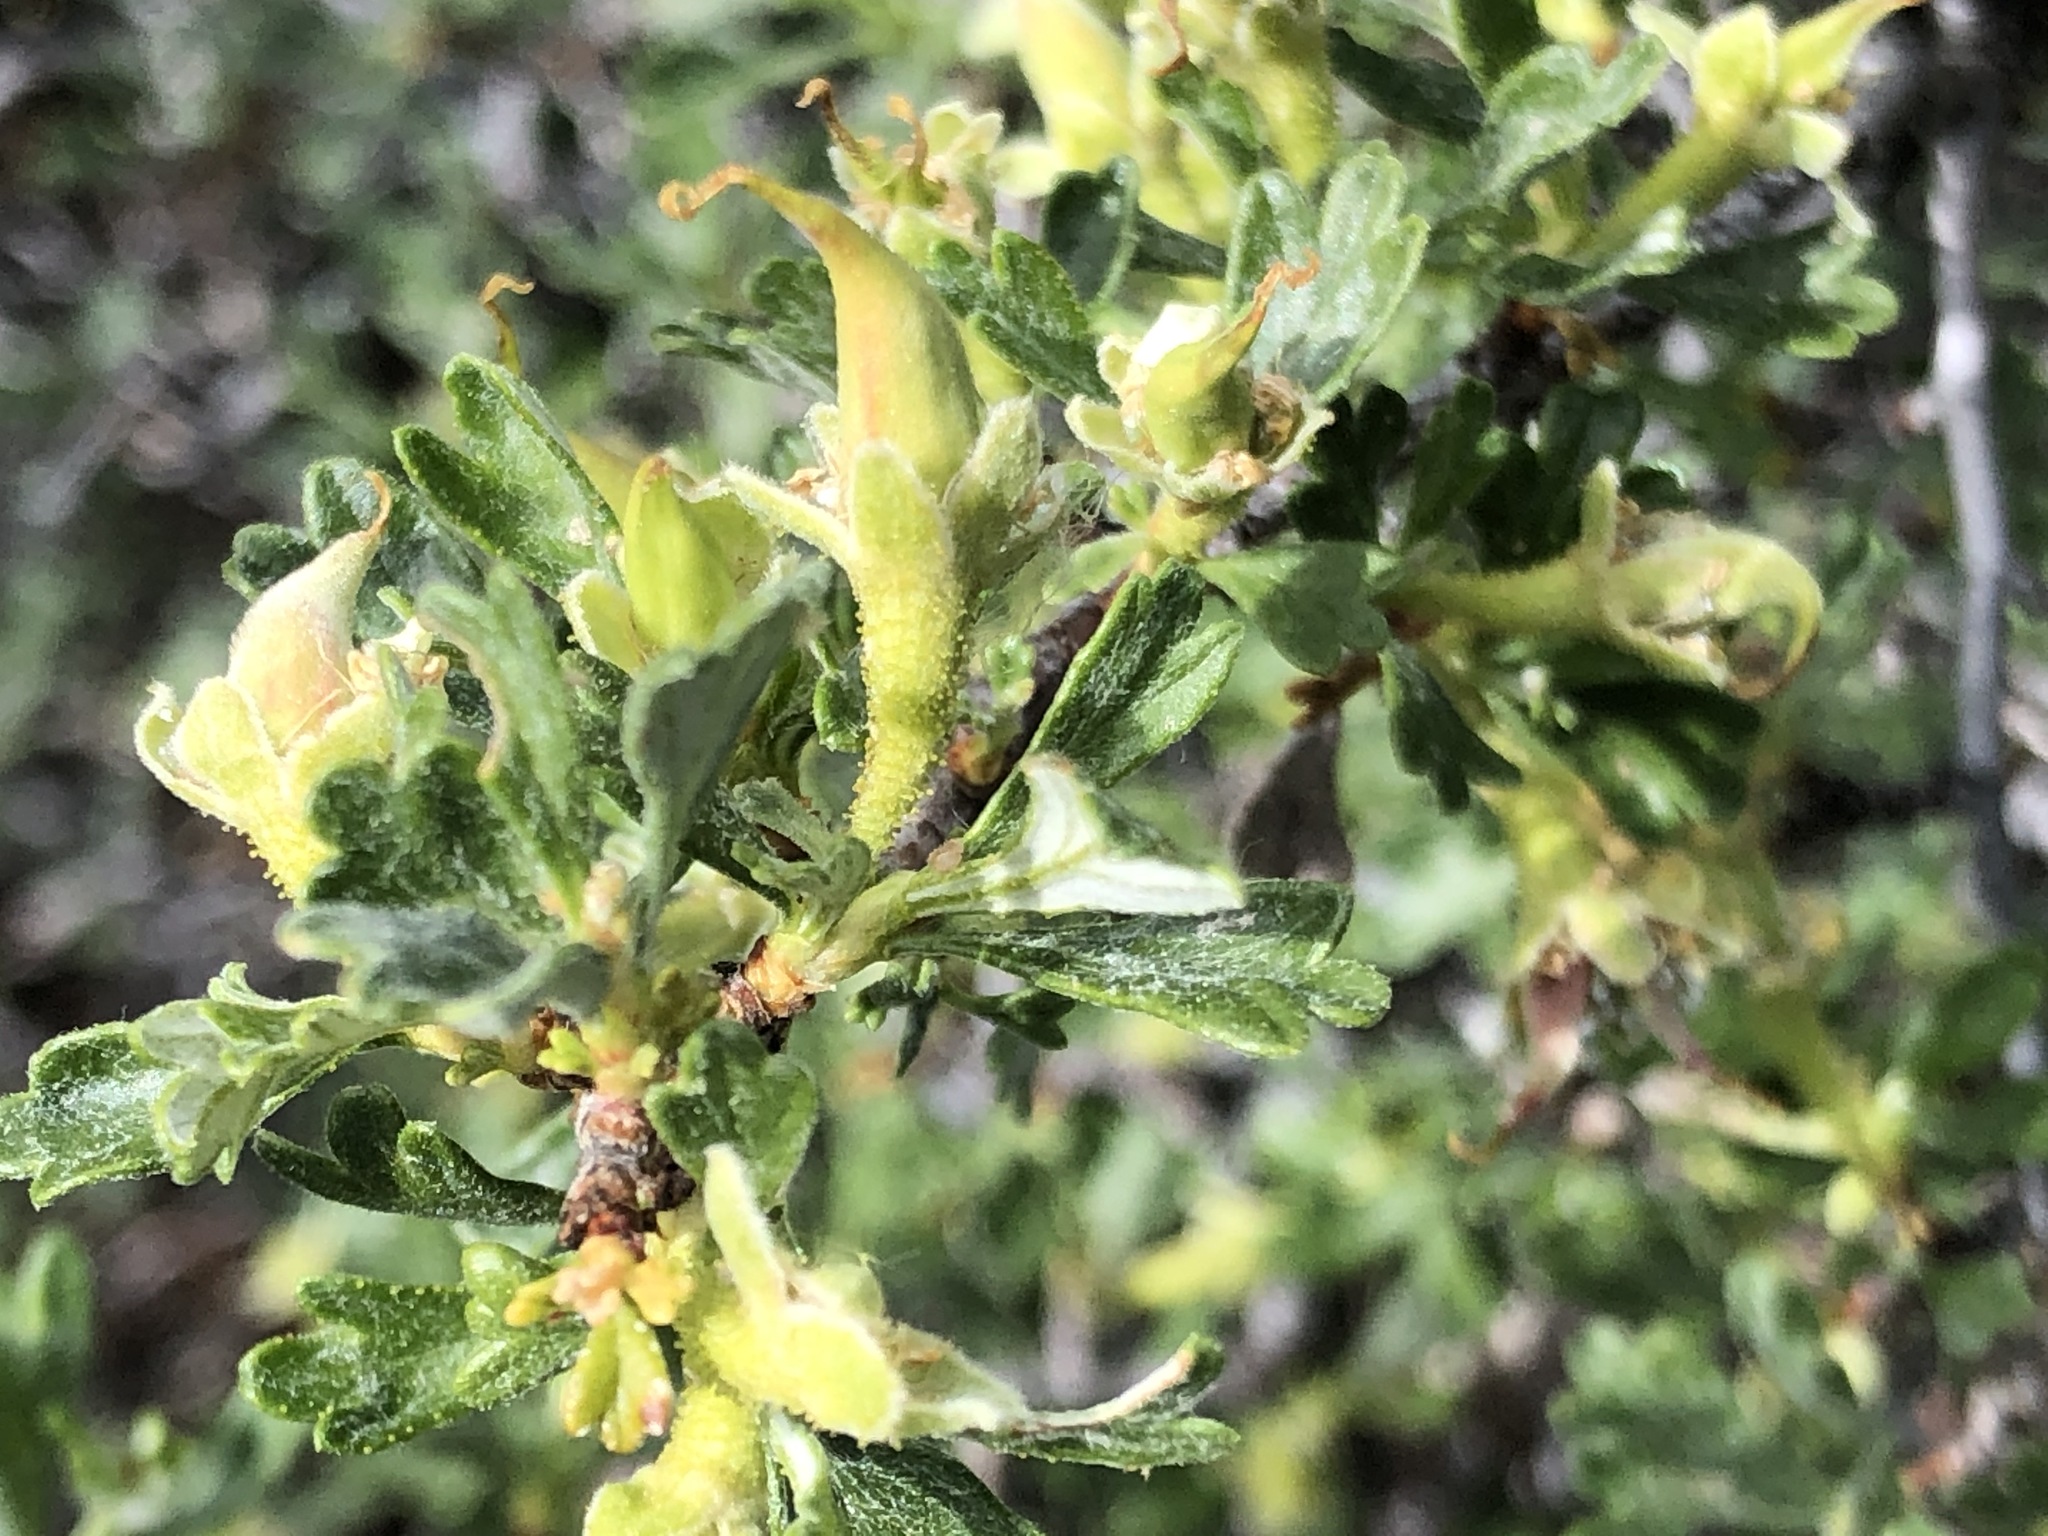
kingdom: Plantae
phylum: Tracheophyta
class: Magnoliopsida
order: Rosales
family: Rosaceae
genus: Purshia
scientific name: Purshia tridentata
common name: Antelope bitterbrush
